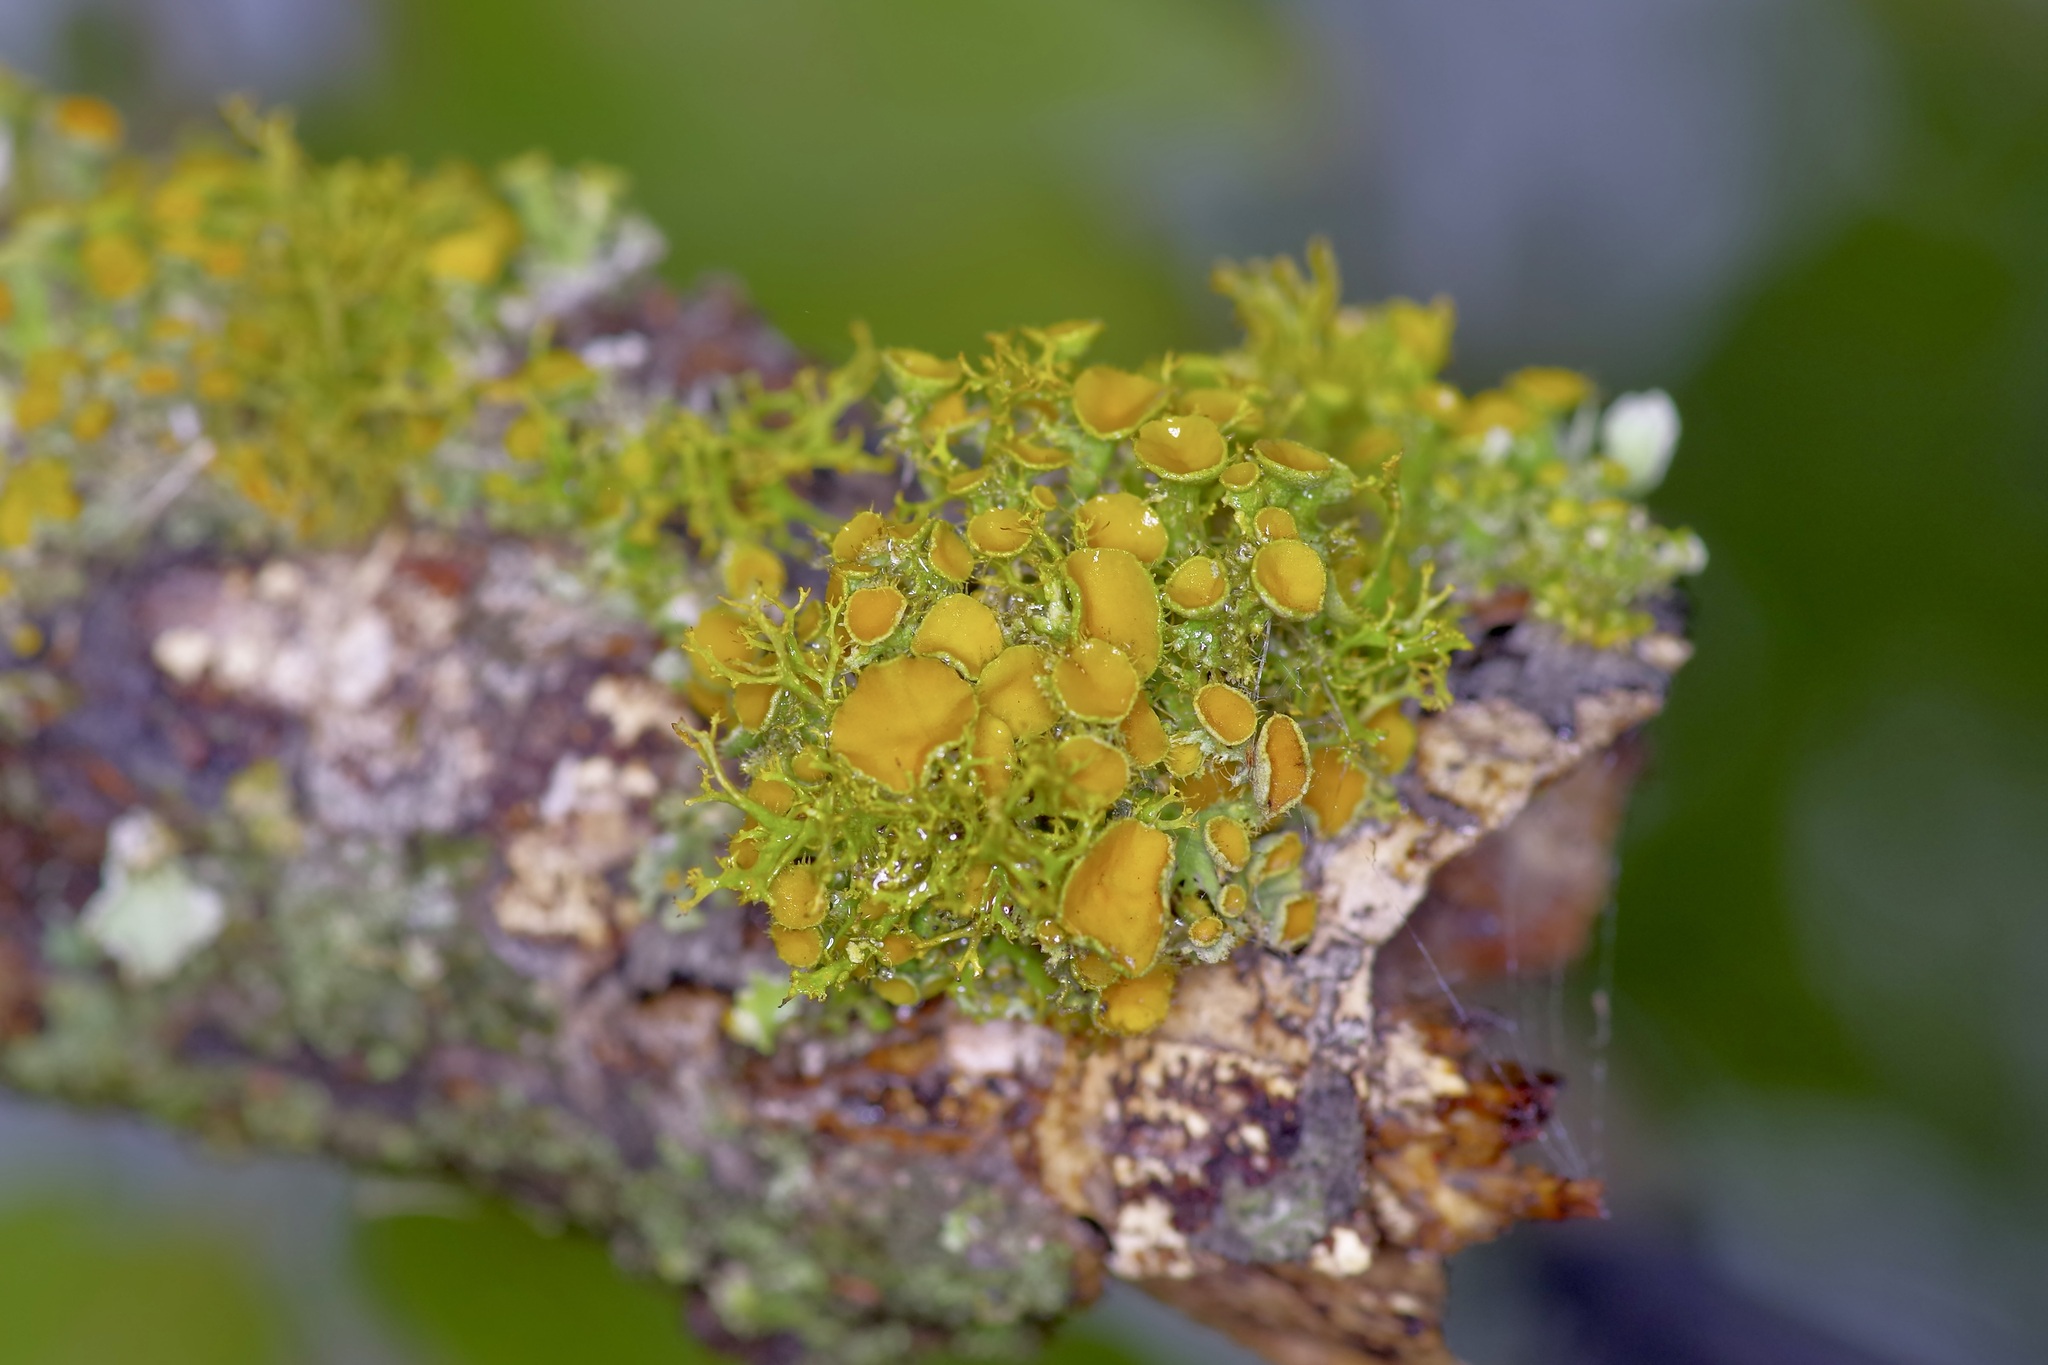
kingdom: Fungi
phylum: Ascomycota
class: Lecanoromycetes
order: Teloschistales
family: Teloschistaceae
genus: Niorma
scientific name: Niorma chrysophthalma
